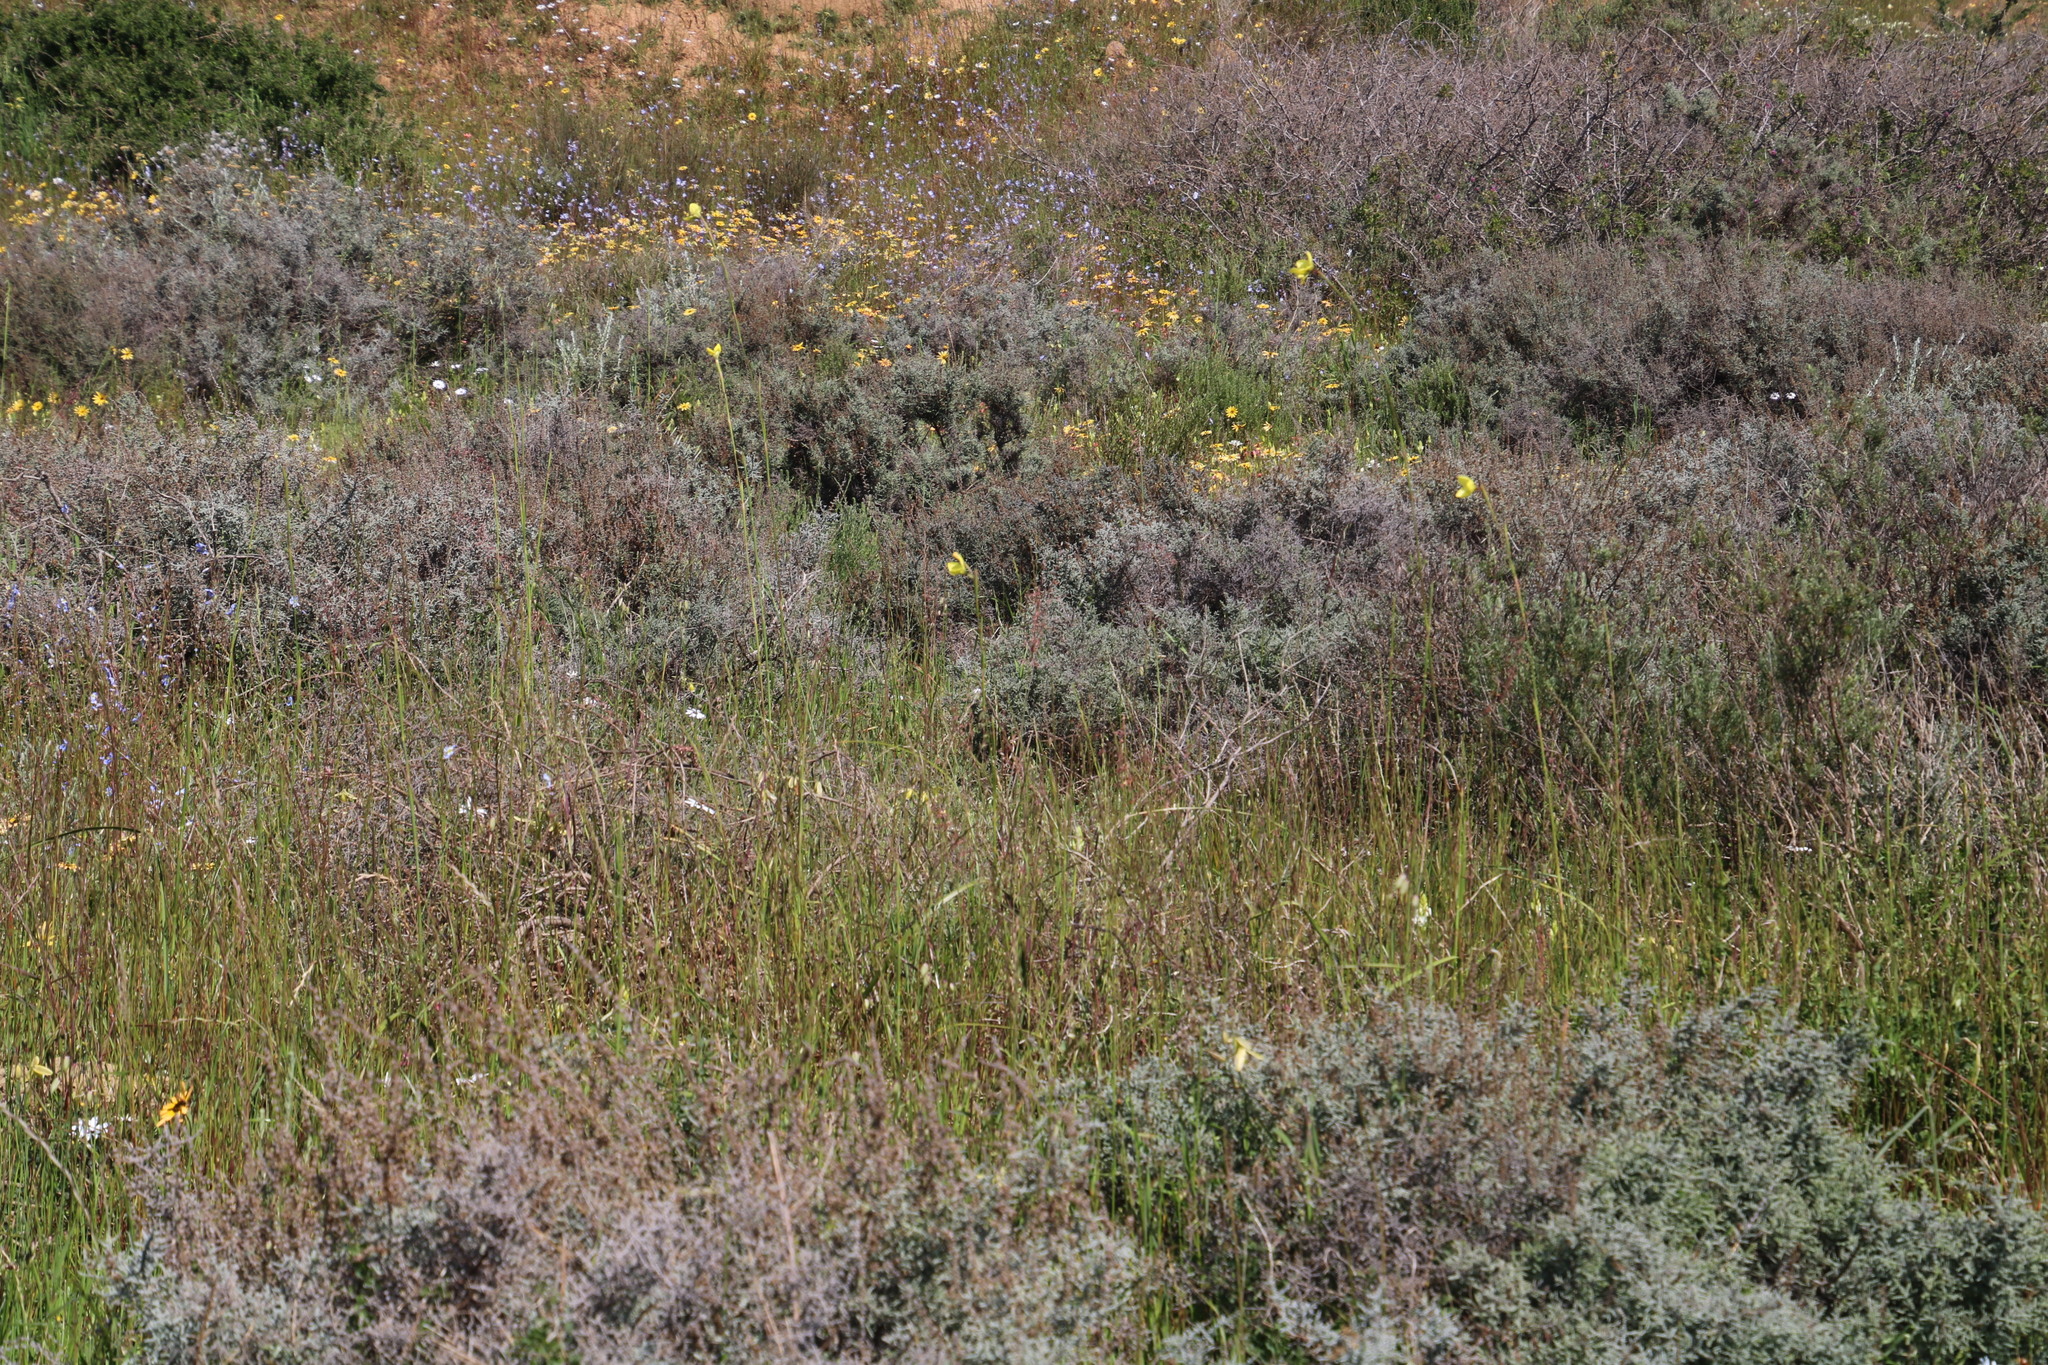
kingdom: Plantae
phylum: Tracheophyta
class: Liliopsida
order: Asparagales
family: Iridaceae
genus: Moraea
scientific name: Moraea bellendenii
